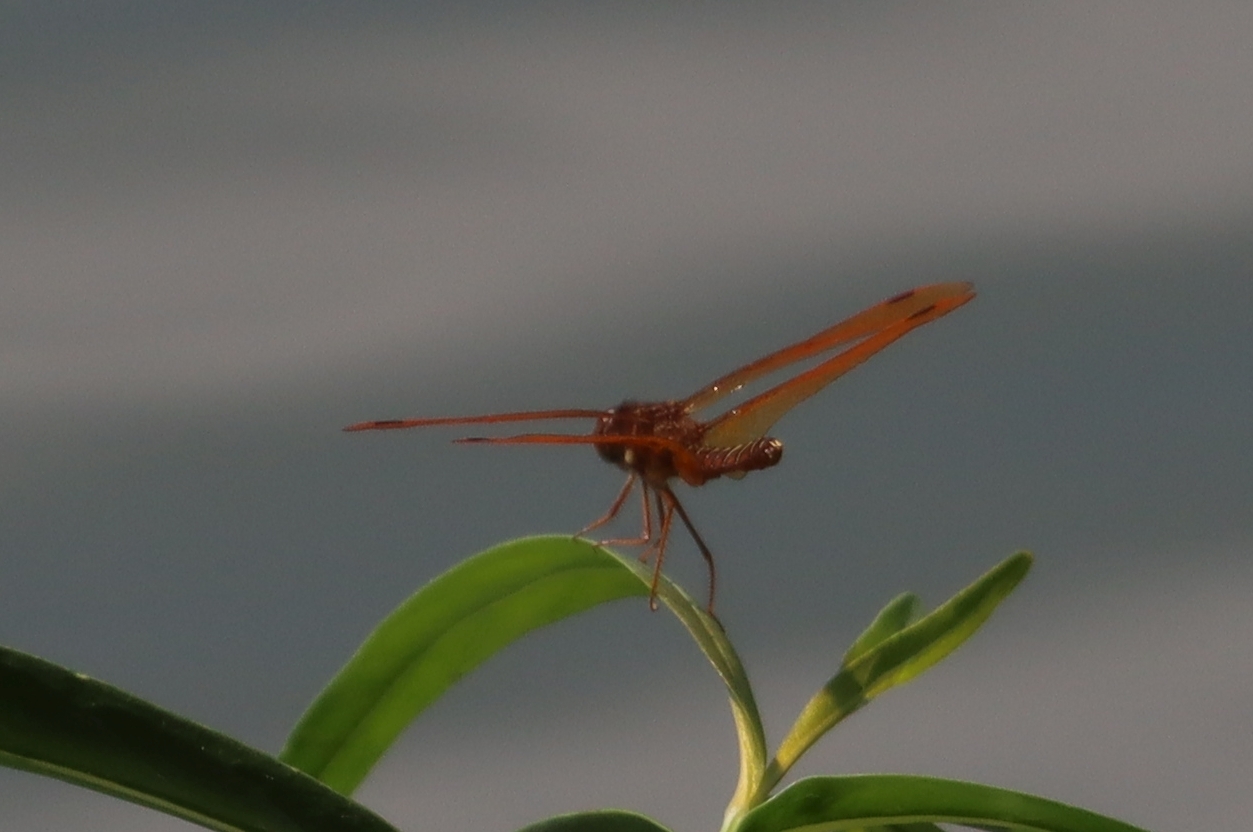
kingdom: Animalia
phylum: Arthropoda
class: Insecta
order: Odonata
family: Libellulidae
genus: Perithemis
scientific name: Perithemis tenera
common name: Eastern amberwing
